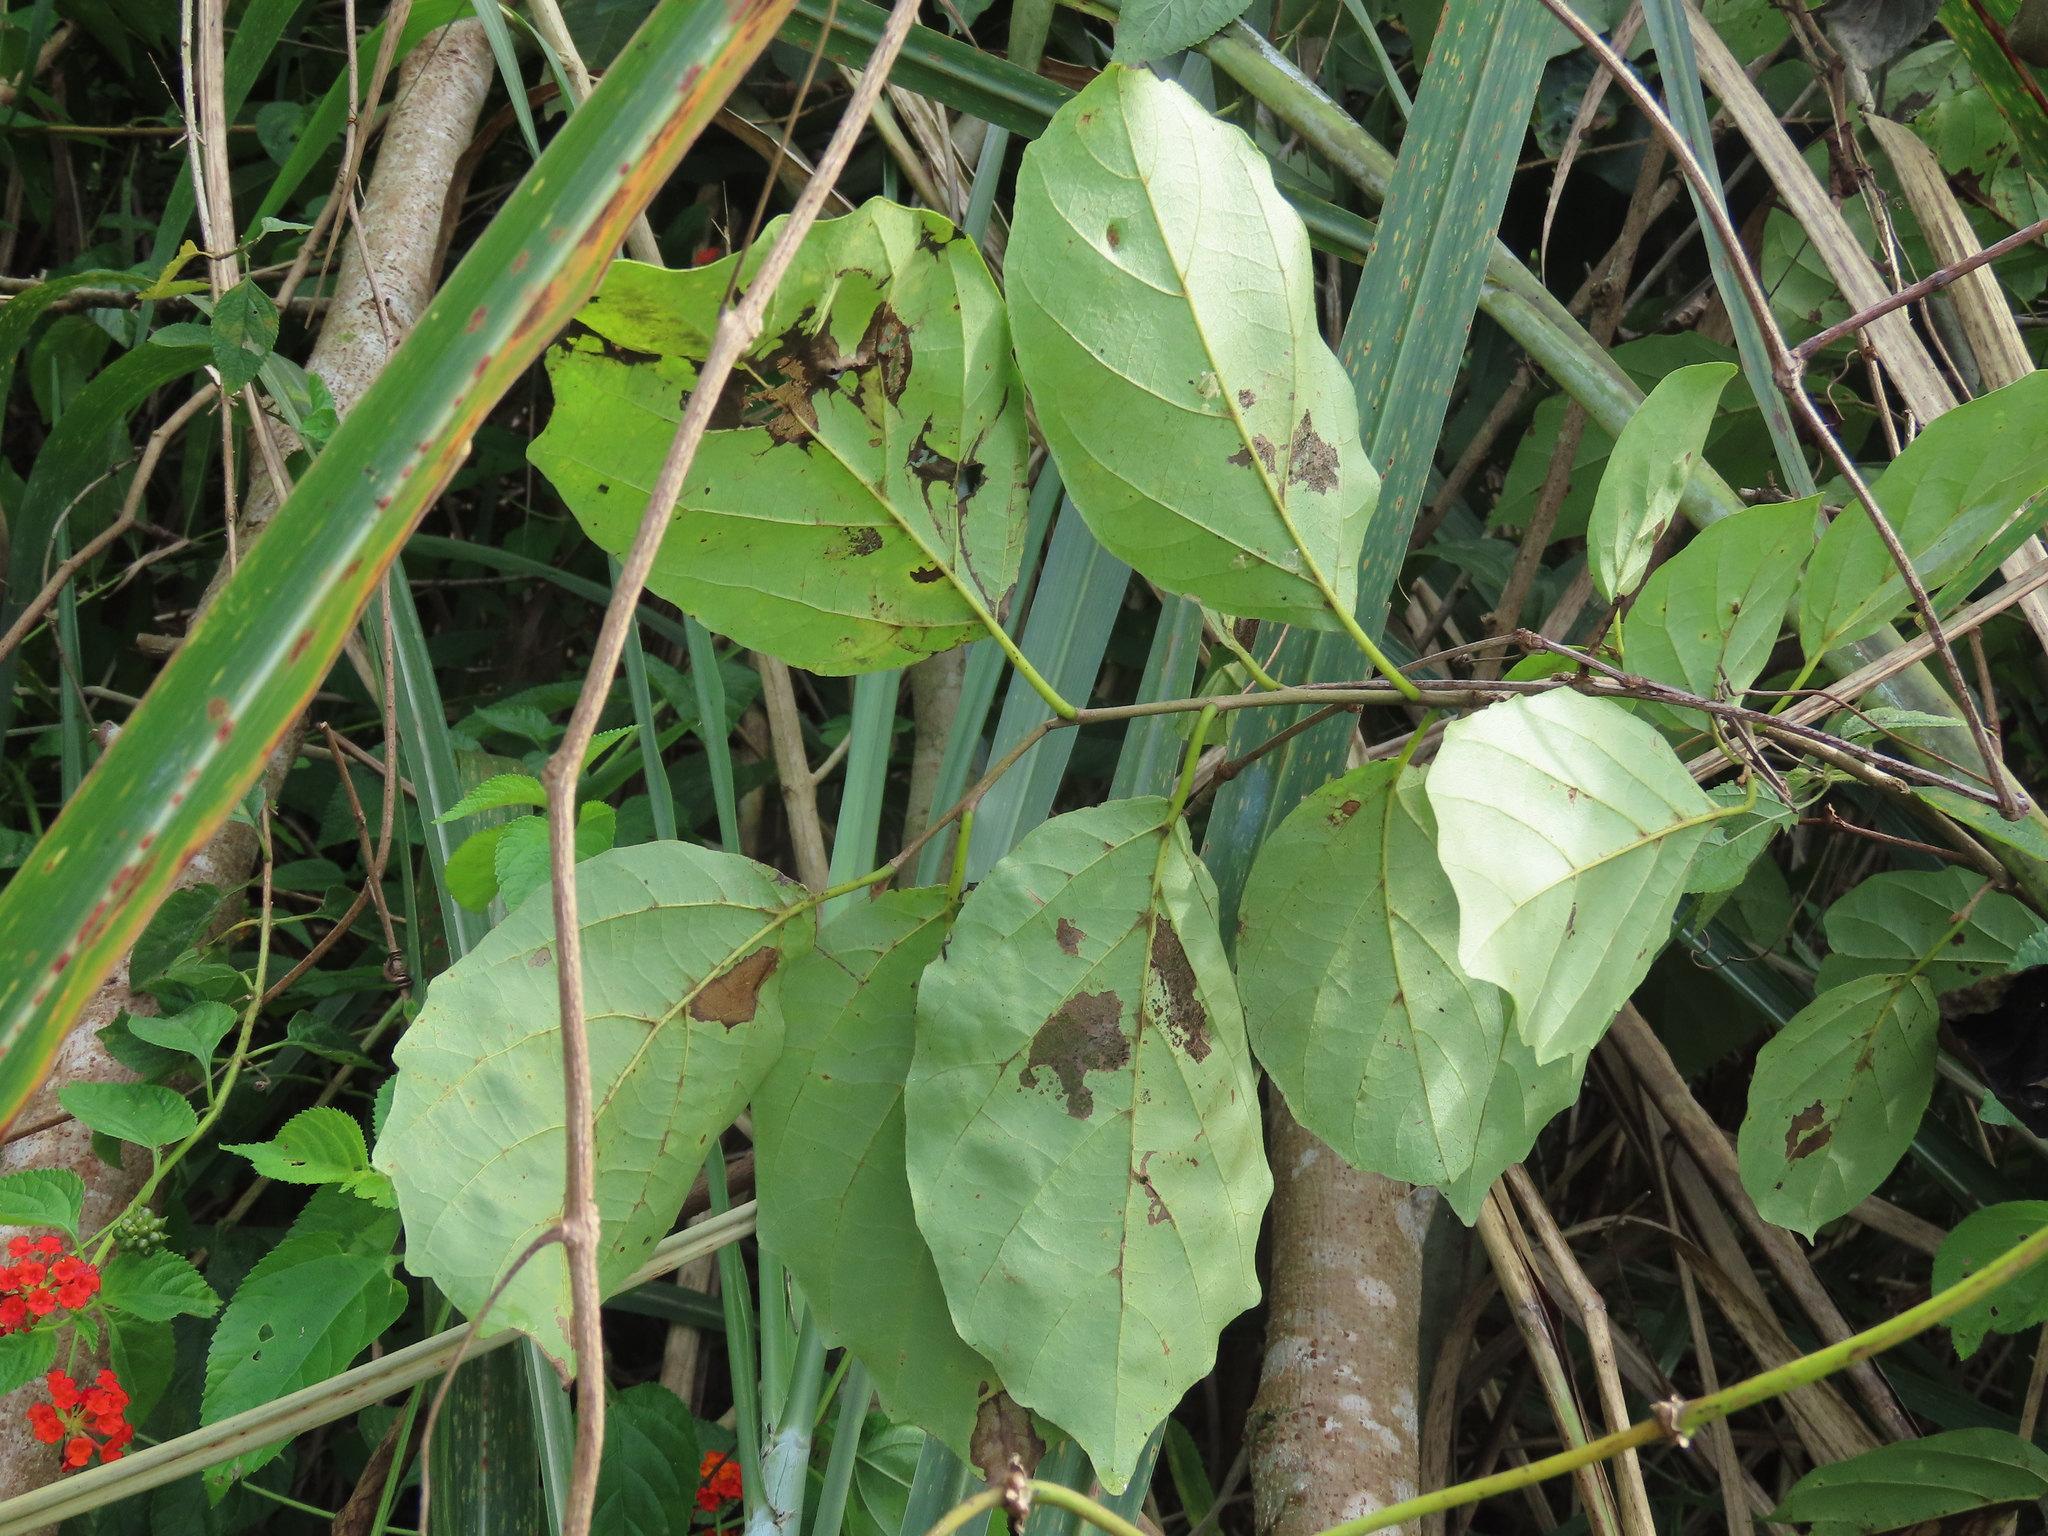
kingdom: Plantae
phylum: Tracheophyta
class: Magnoliopsida
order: Boraginales
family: Cordiaceae
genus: Cordia
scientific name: Cordia dichotoma
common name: Fragrant manjack
